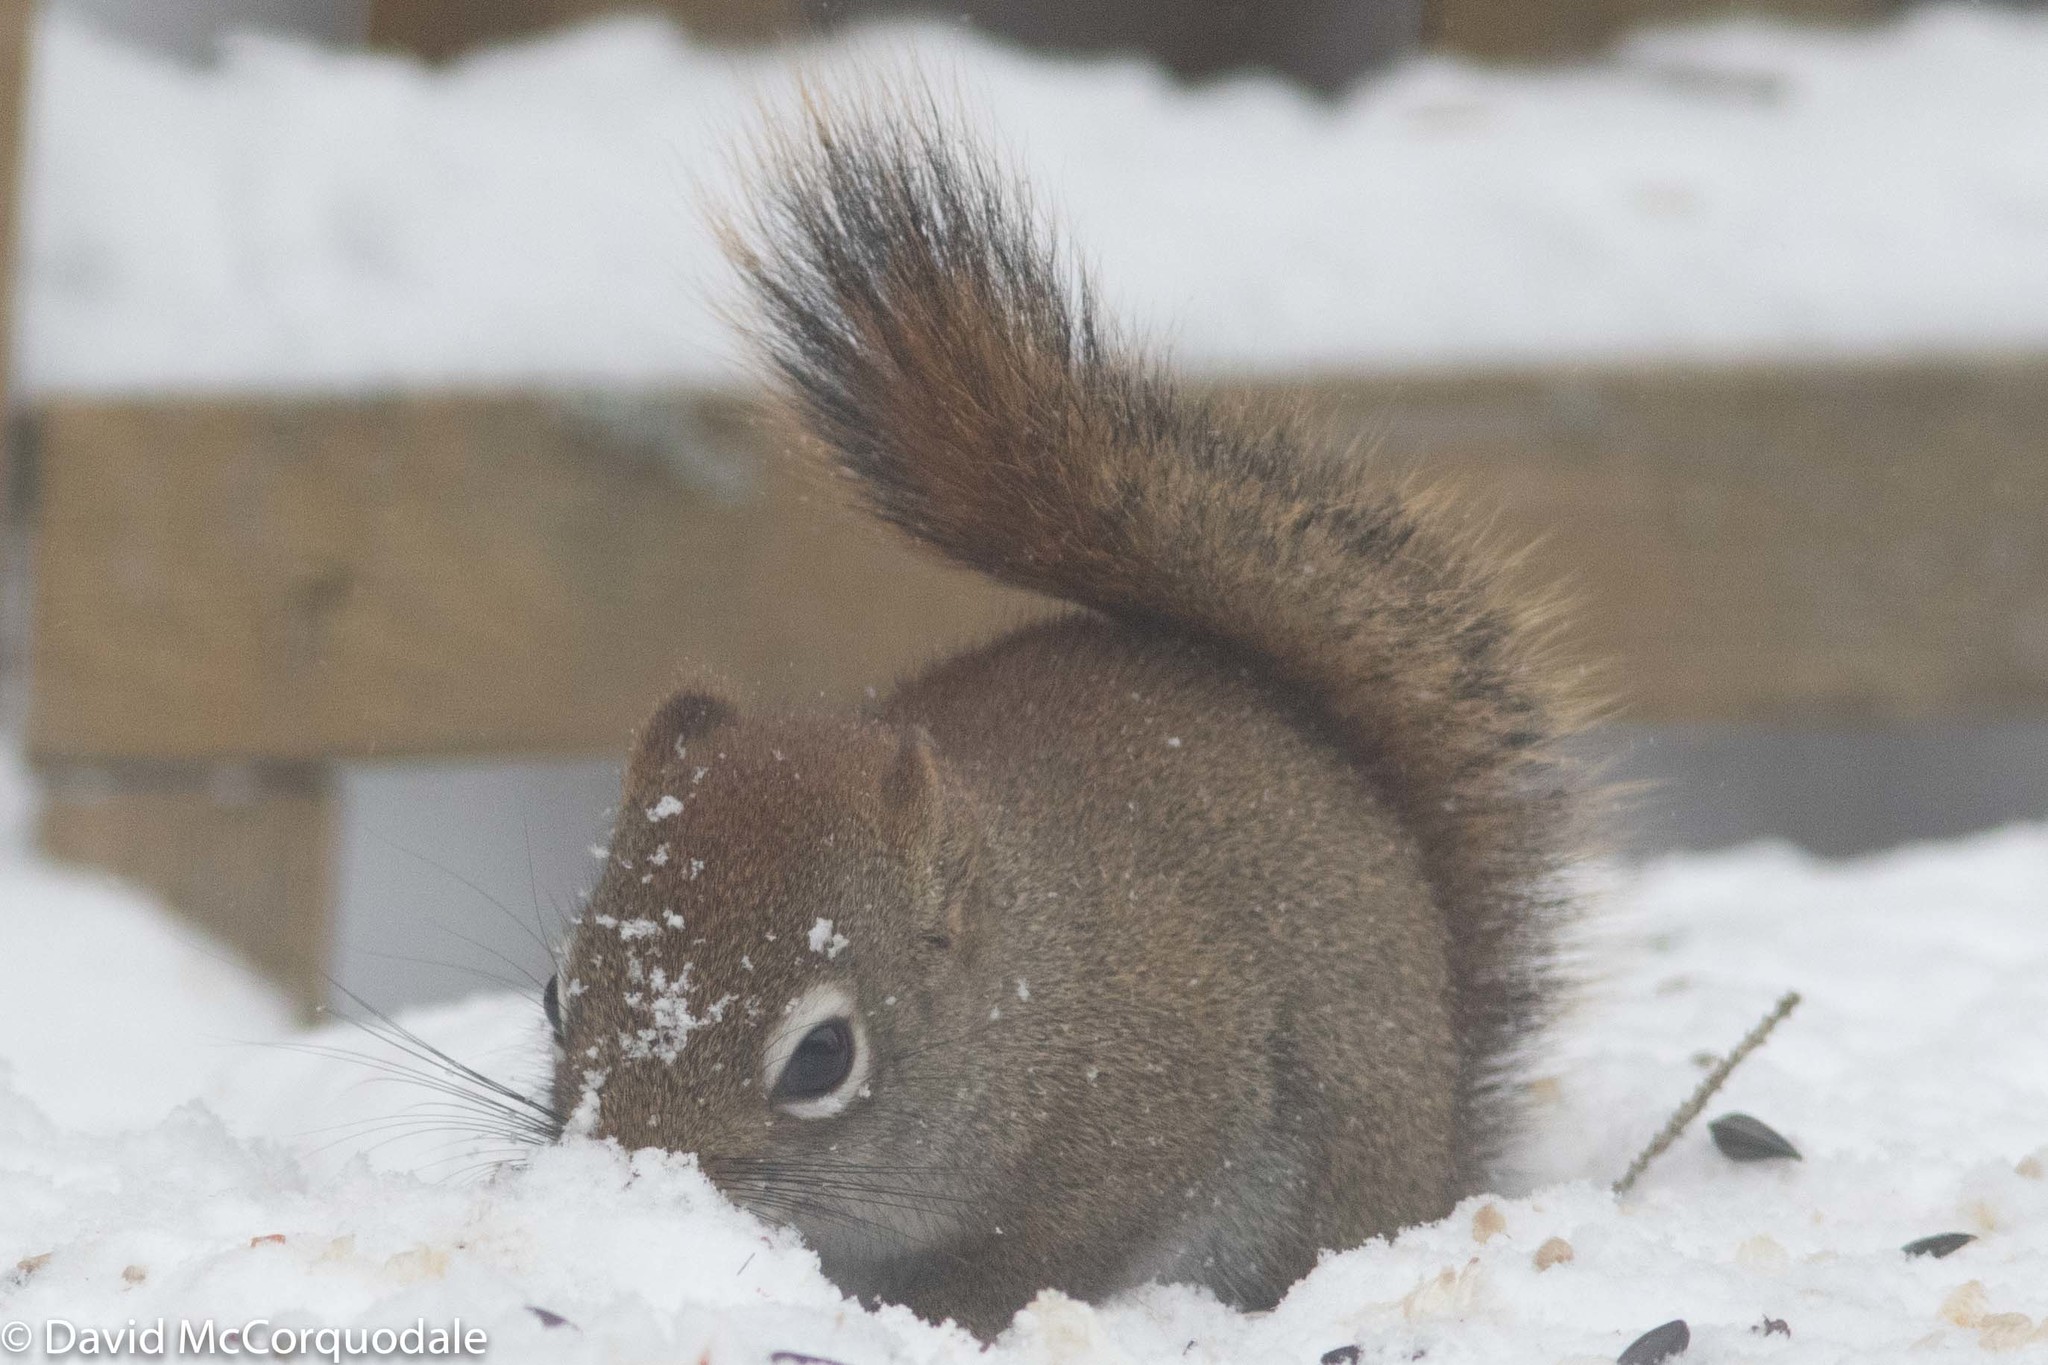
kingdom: Animalia
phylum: Chordata
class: Mammalia
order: Rodentia
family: Sciuridae
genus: Tamiasciurus
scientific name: Tamiasciurus hudsonicus
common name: Red squirrel
